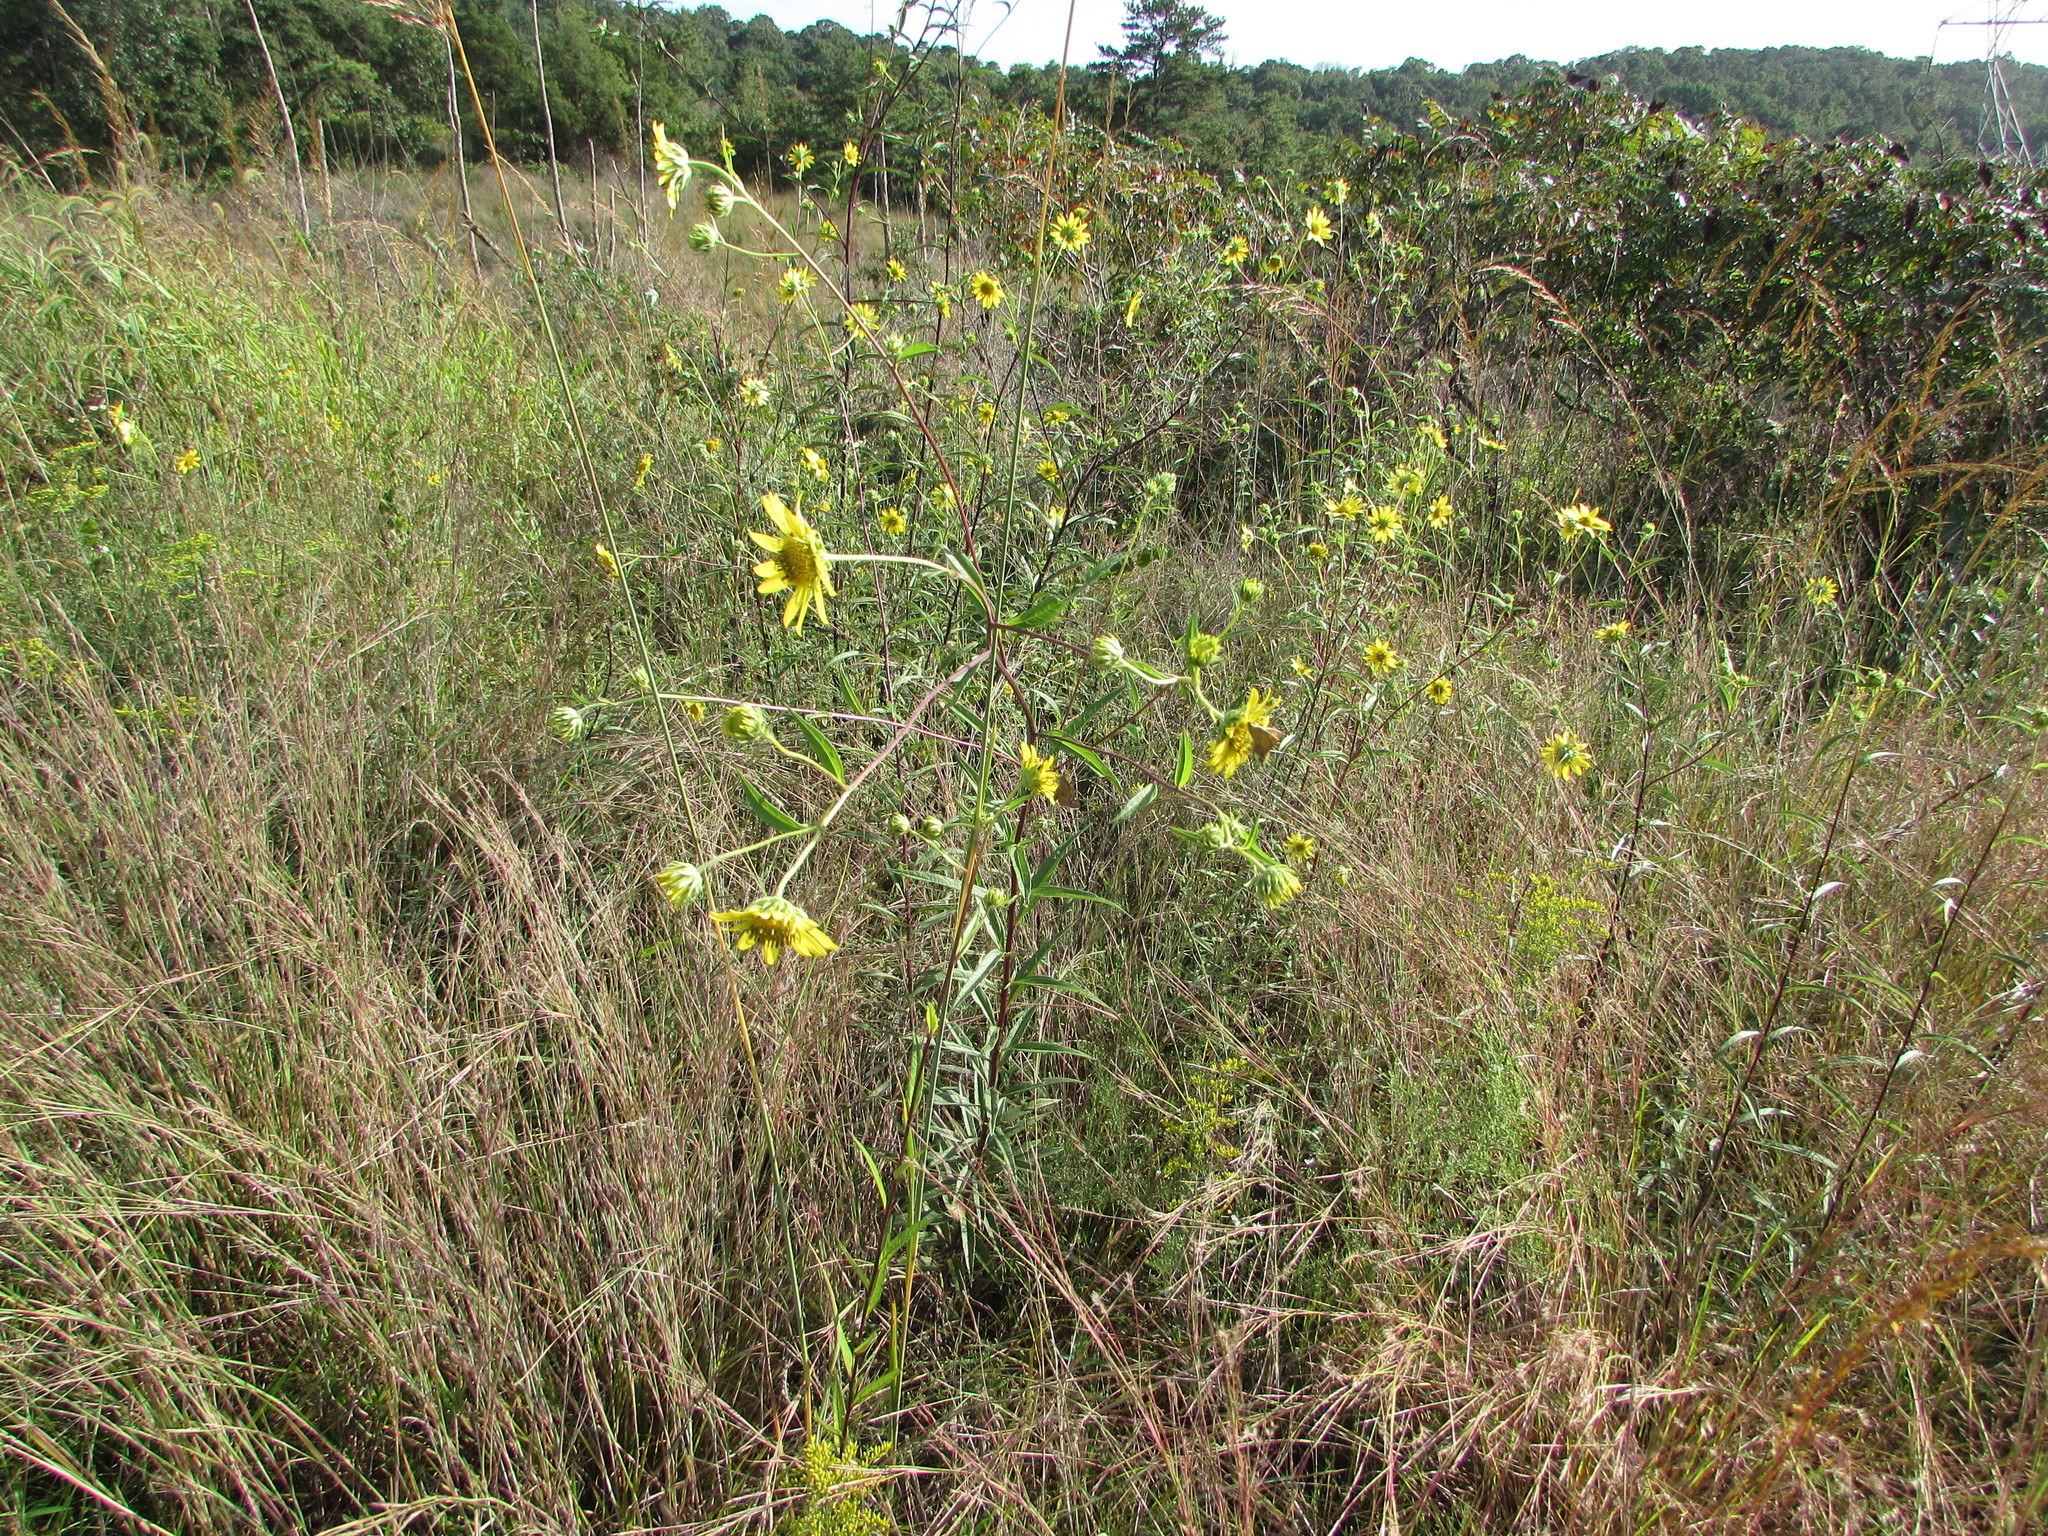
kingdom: Plantae
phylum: Tracheophyta
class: Magnoliopsida
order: Asterales
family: Asteraceae
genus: Helianthus
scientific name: Helianthus giganteus
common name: Giant sunflower
